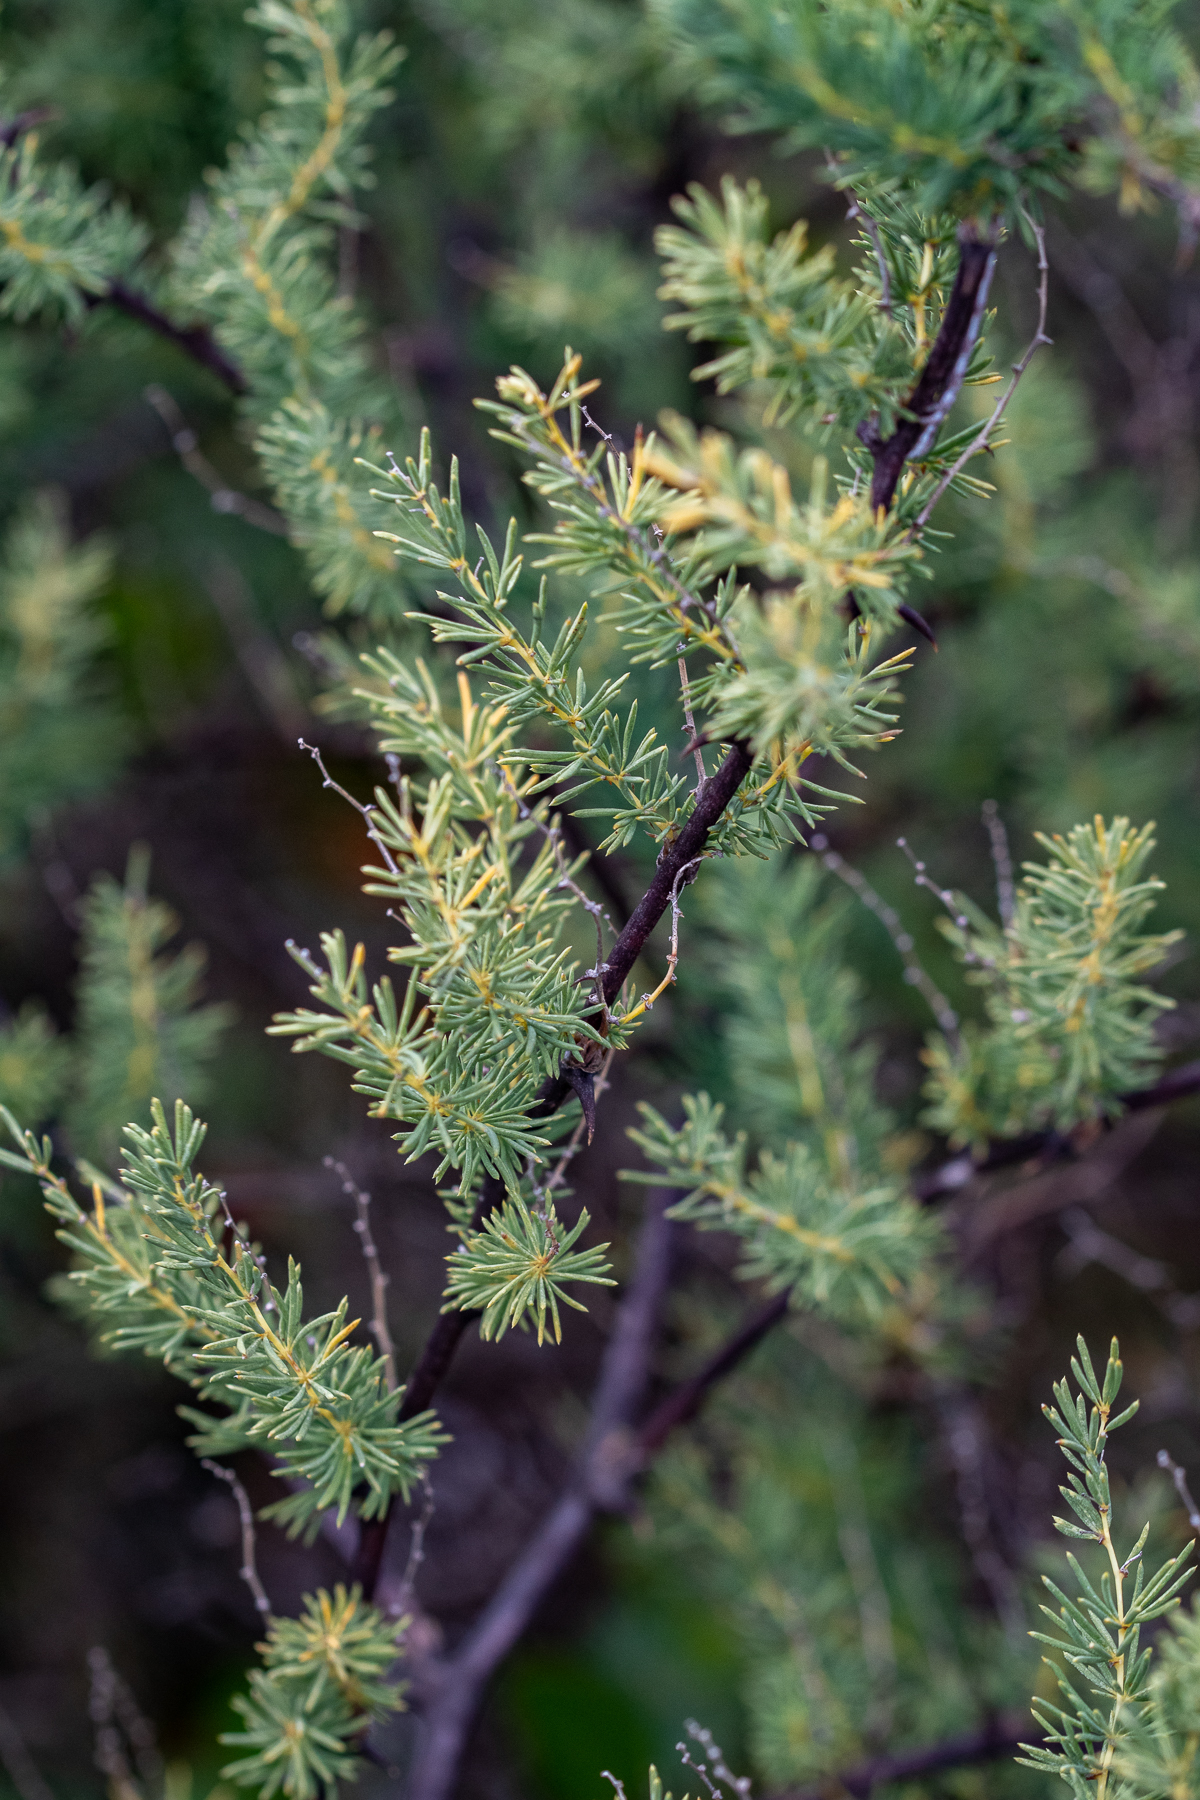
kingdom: Plantae
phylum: Tracheophyta
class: Liliopsida
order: Asparagales
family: Asparagaceae
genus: Asparagus
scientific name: Asparagus rubicundus
